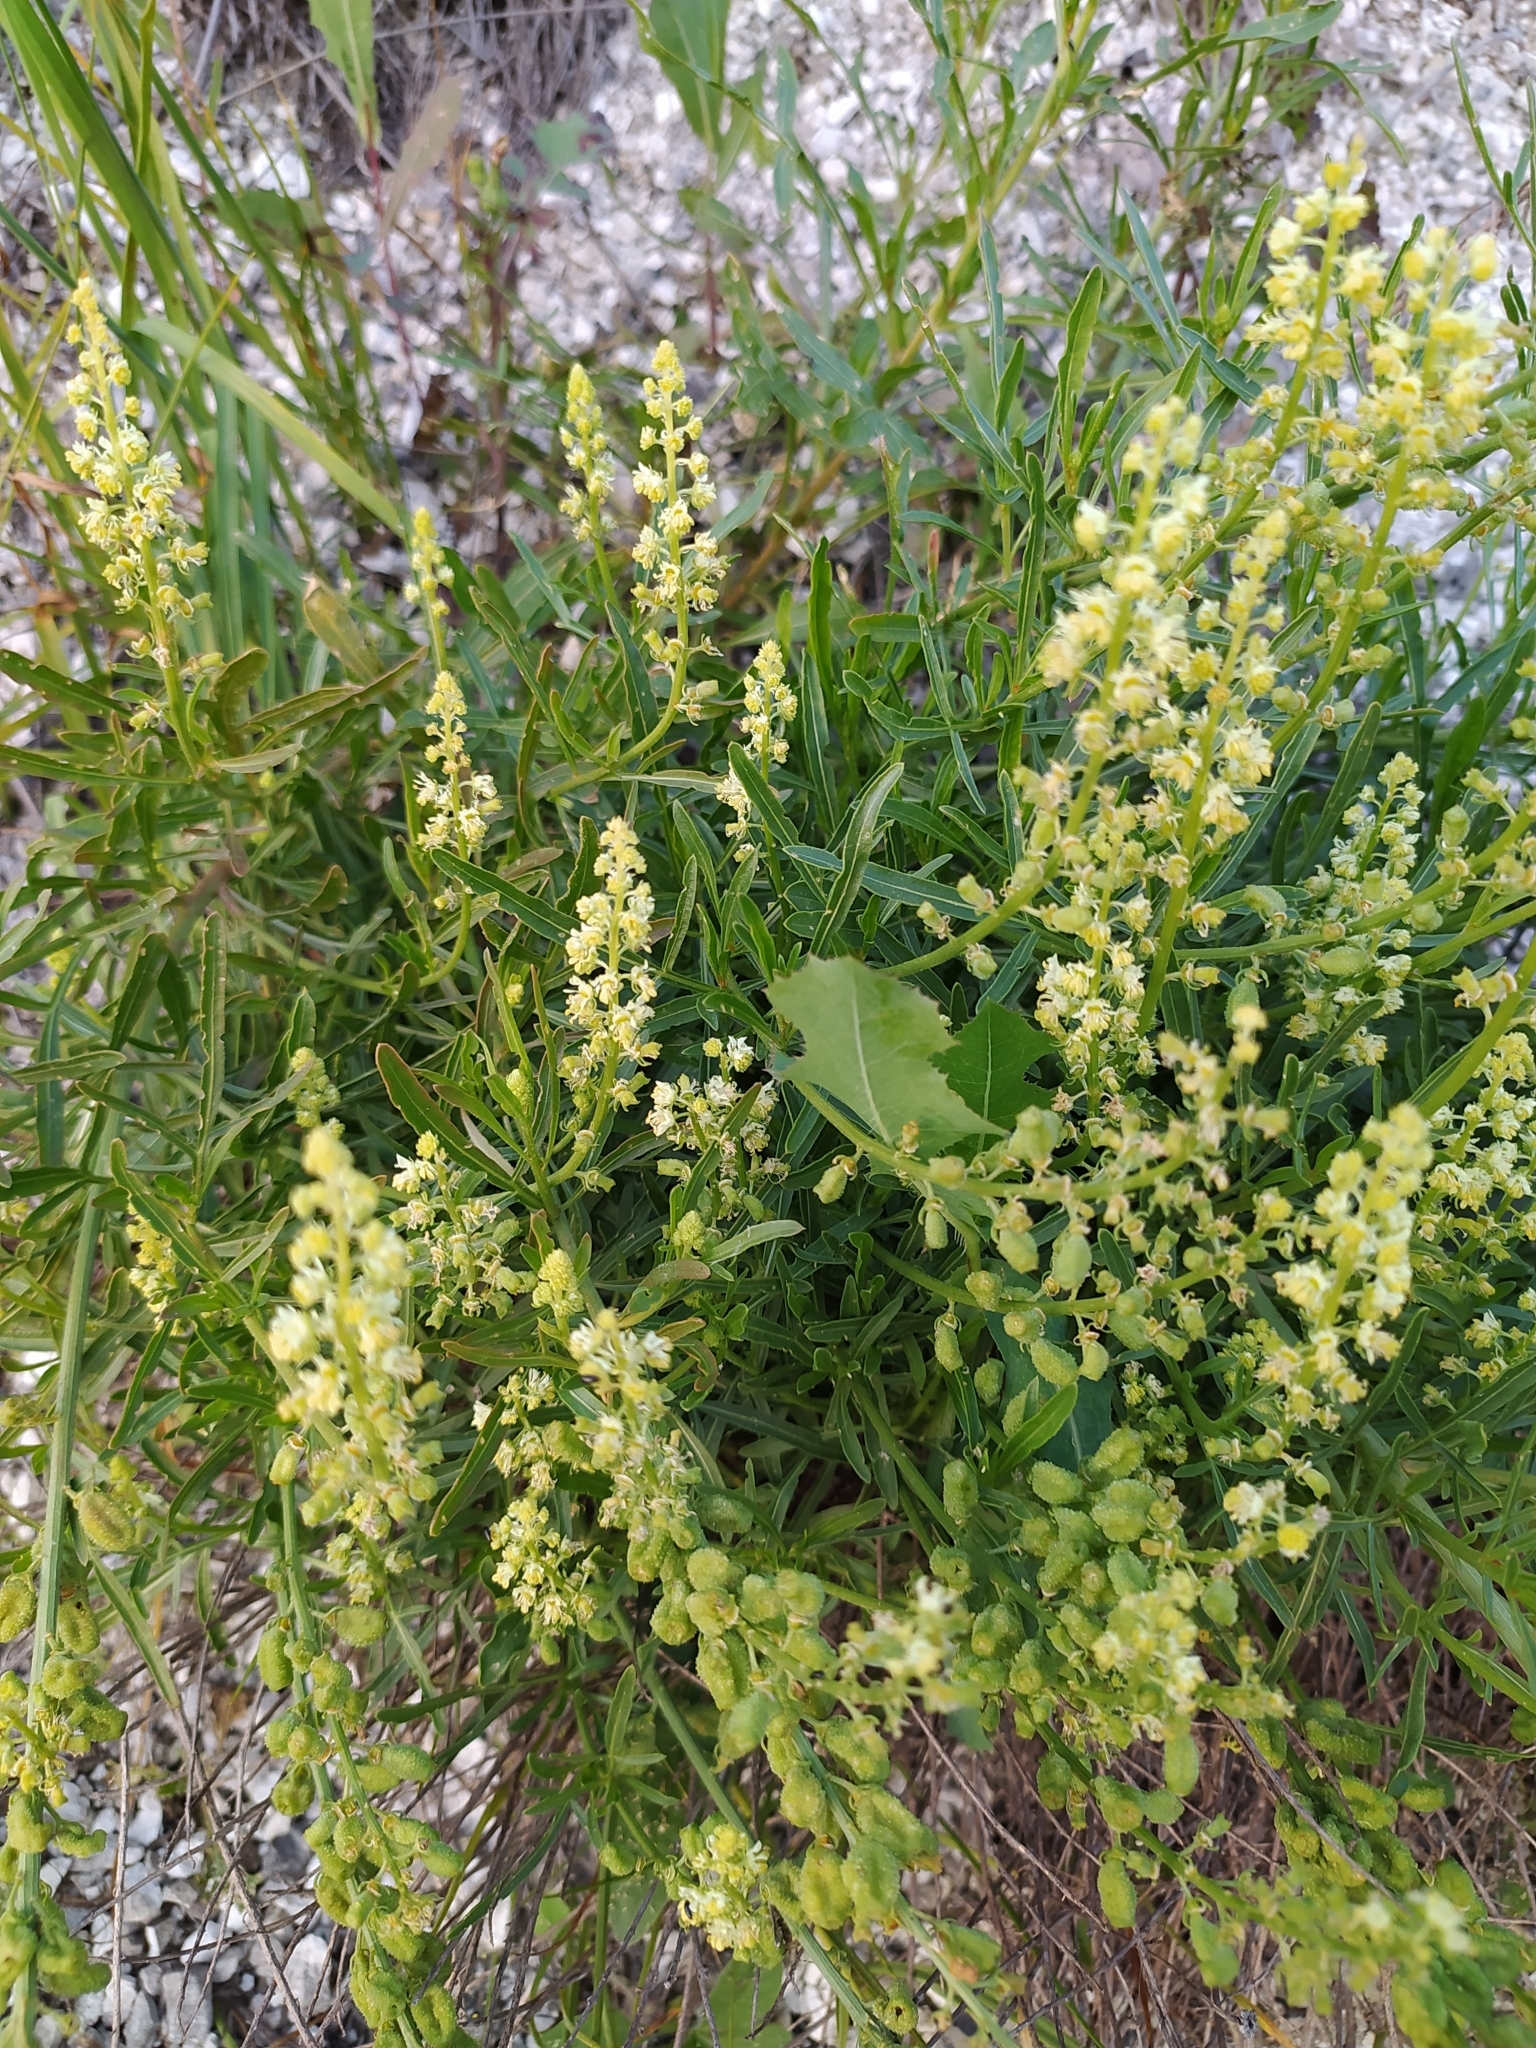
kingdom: Plantae
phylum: Tracheophyta
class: Magnoliopsida
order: Brassicales
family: Resedaceae
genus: Reseda
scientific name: Reseda lutea
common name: Wild mignonette
